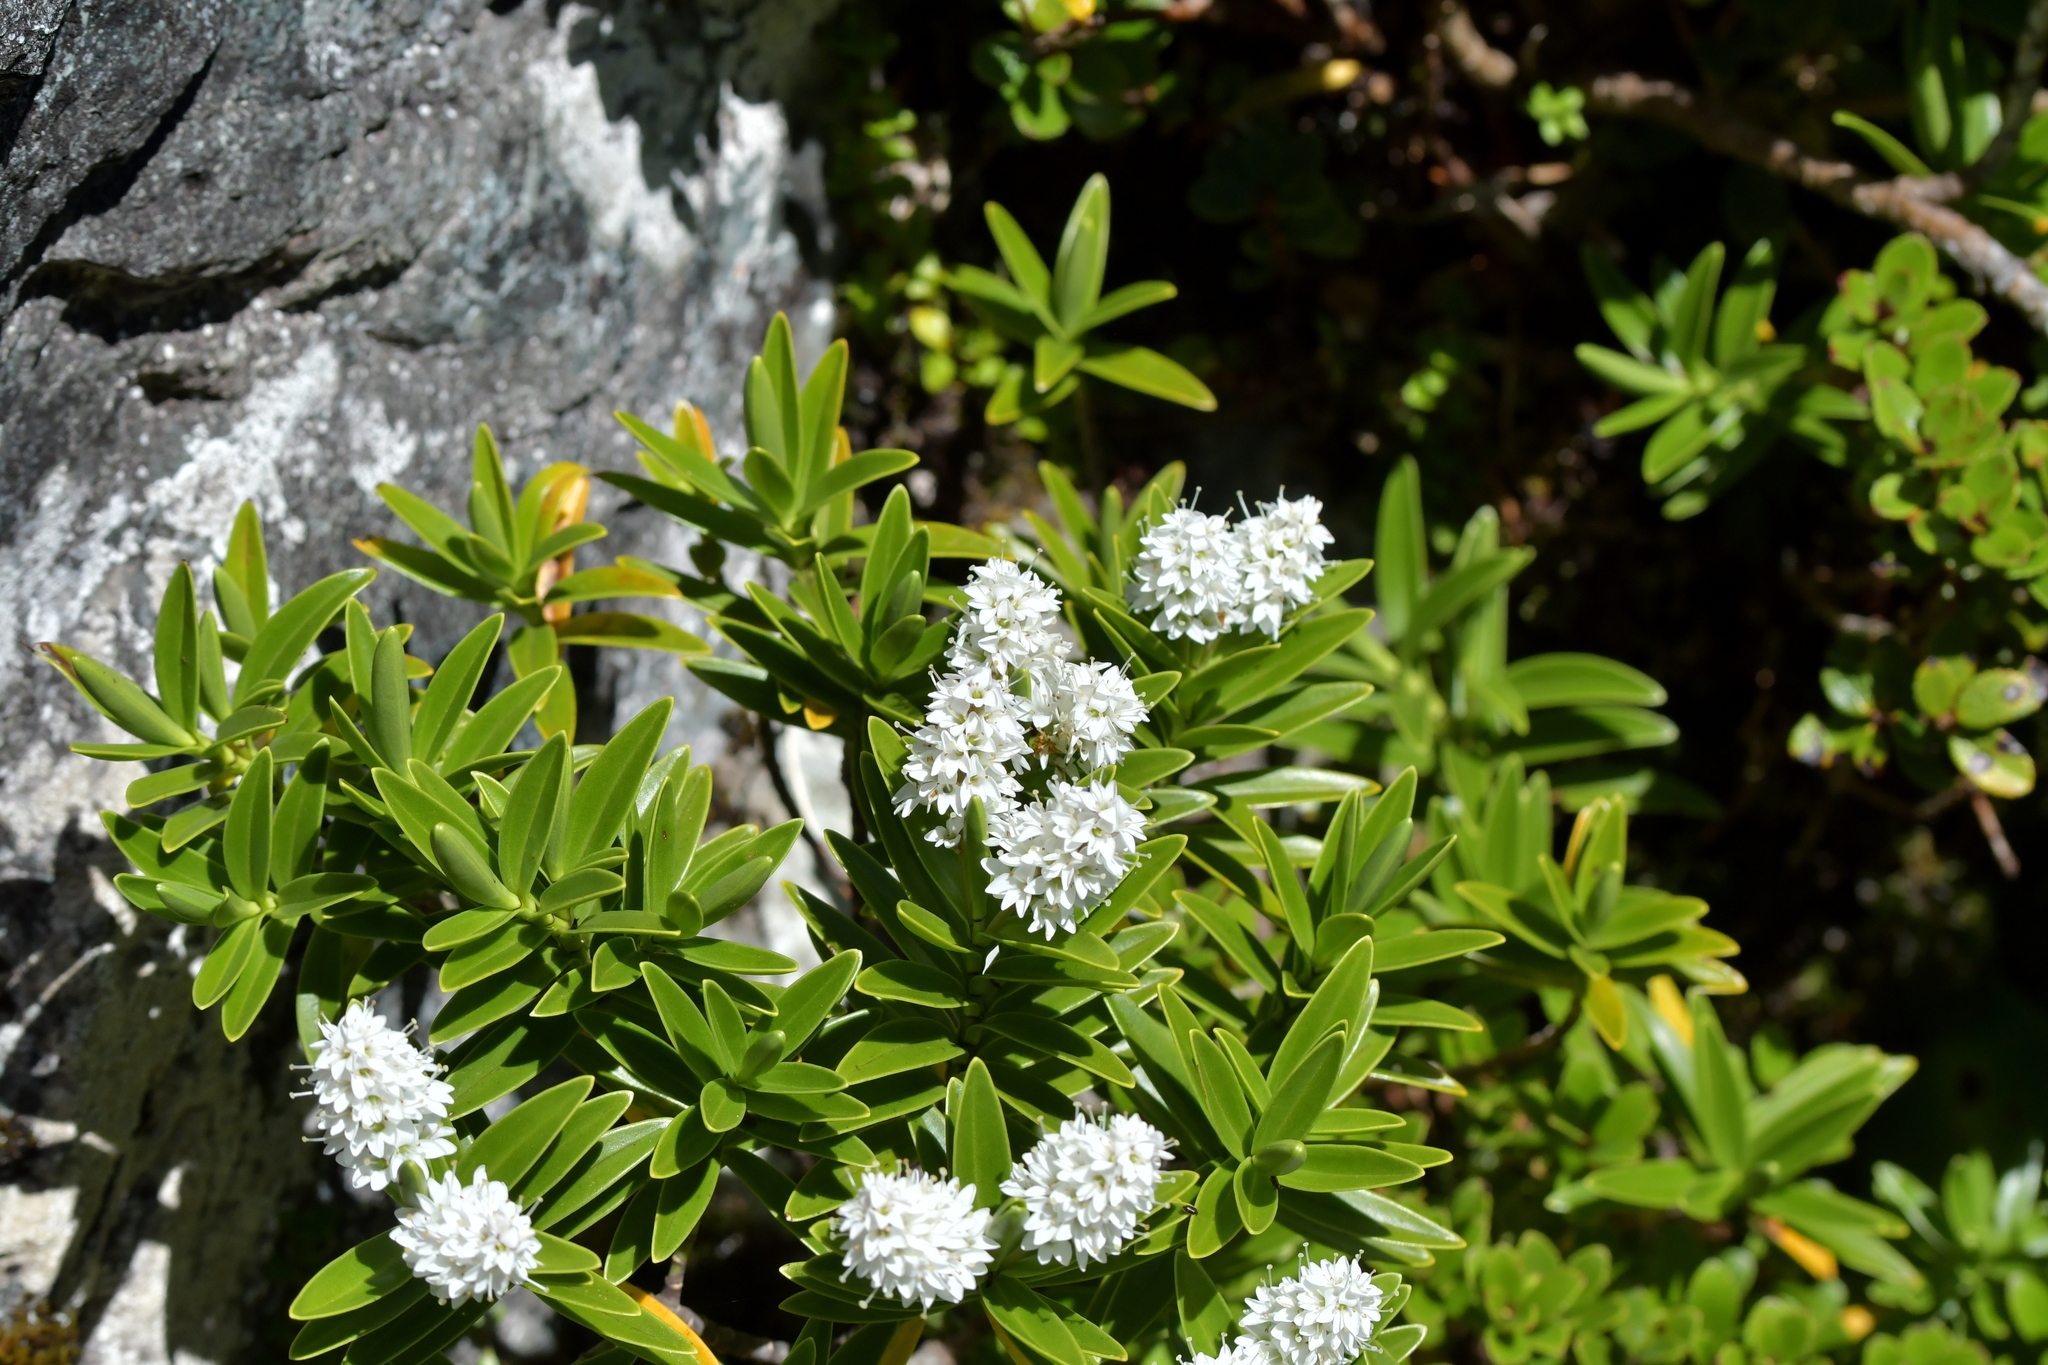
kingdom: Plantae
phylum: Tracheophyta
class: Magnoliopsida
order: Lamiales
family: Plantaginaceae
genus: Veronica
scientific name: Veronica subalpina
